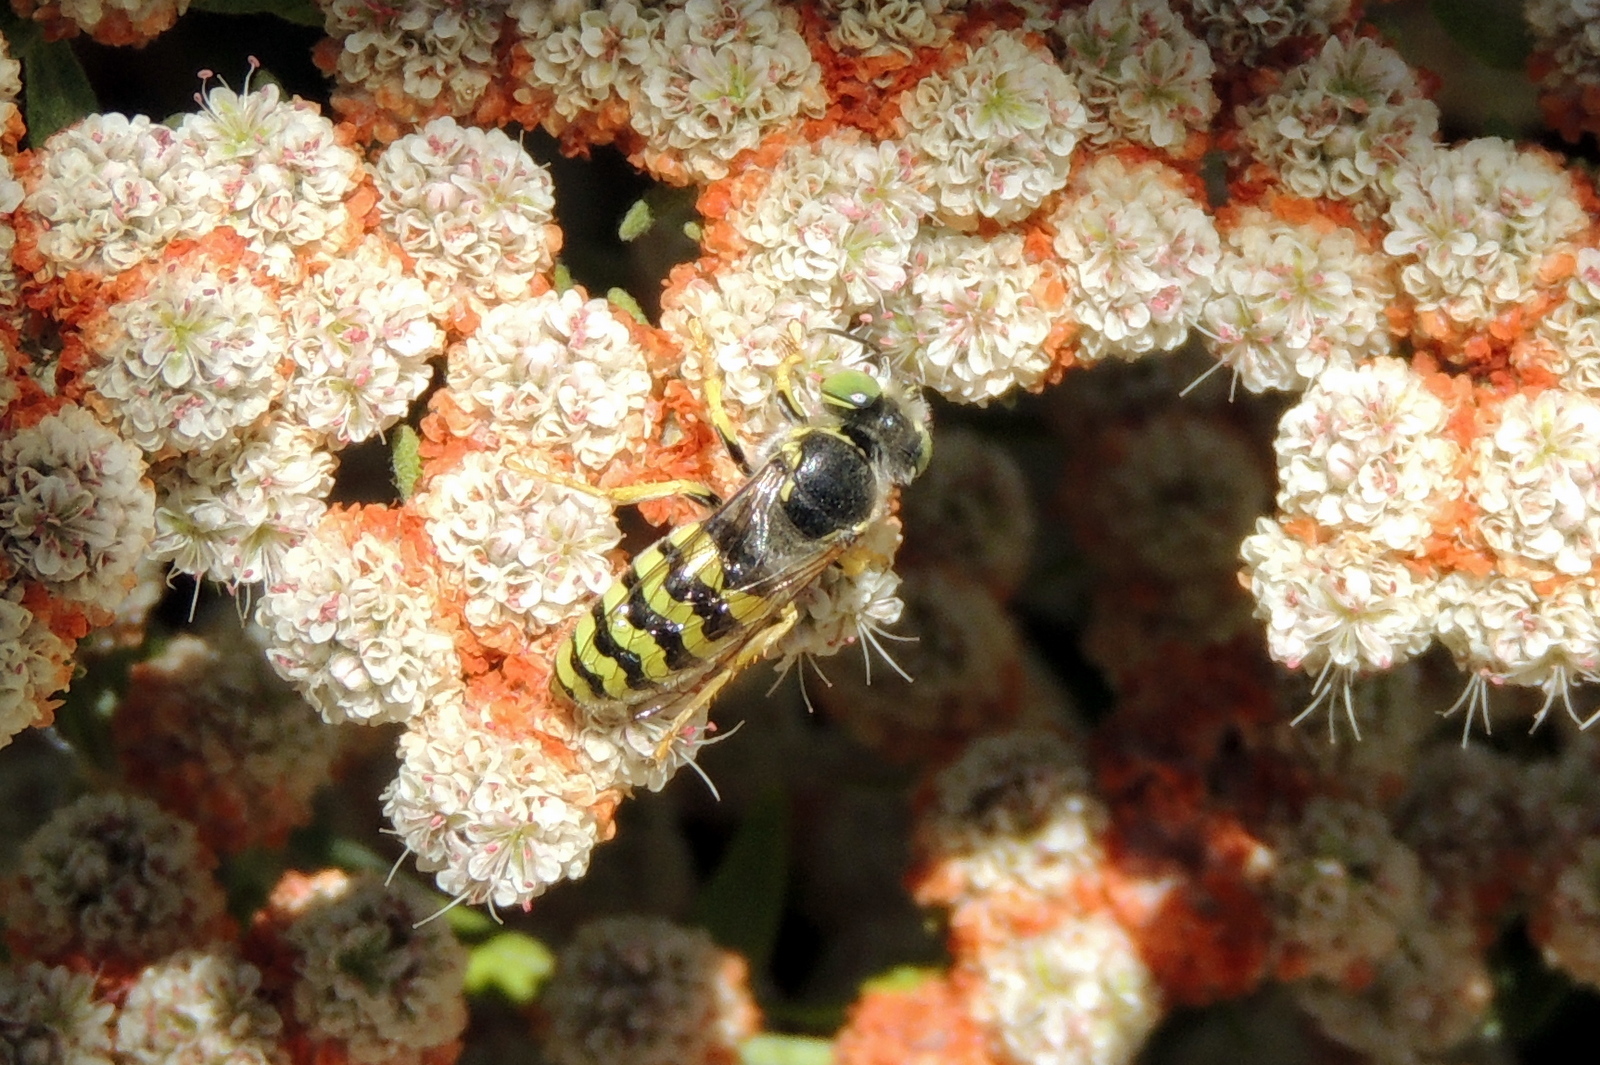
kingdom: Animalia
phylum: Arthropoda
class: Insecta
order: Hymenoptera
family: Crabronidae
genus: Bembix
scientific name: Bembix americana
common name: American sand wasp
